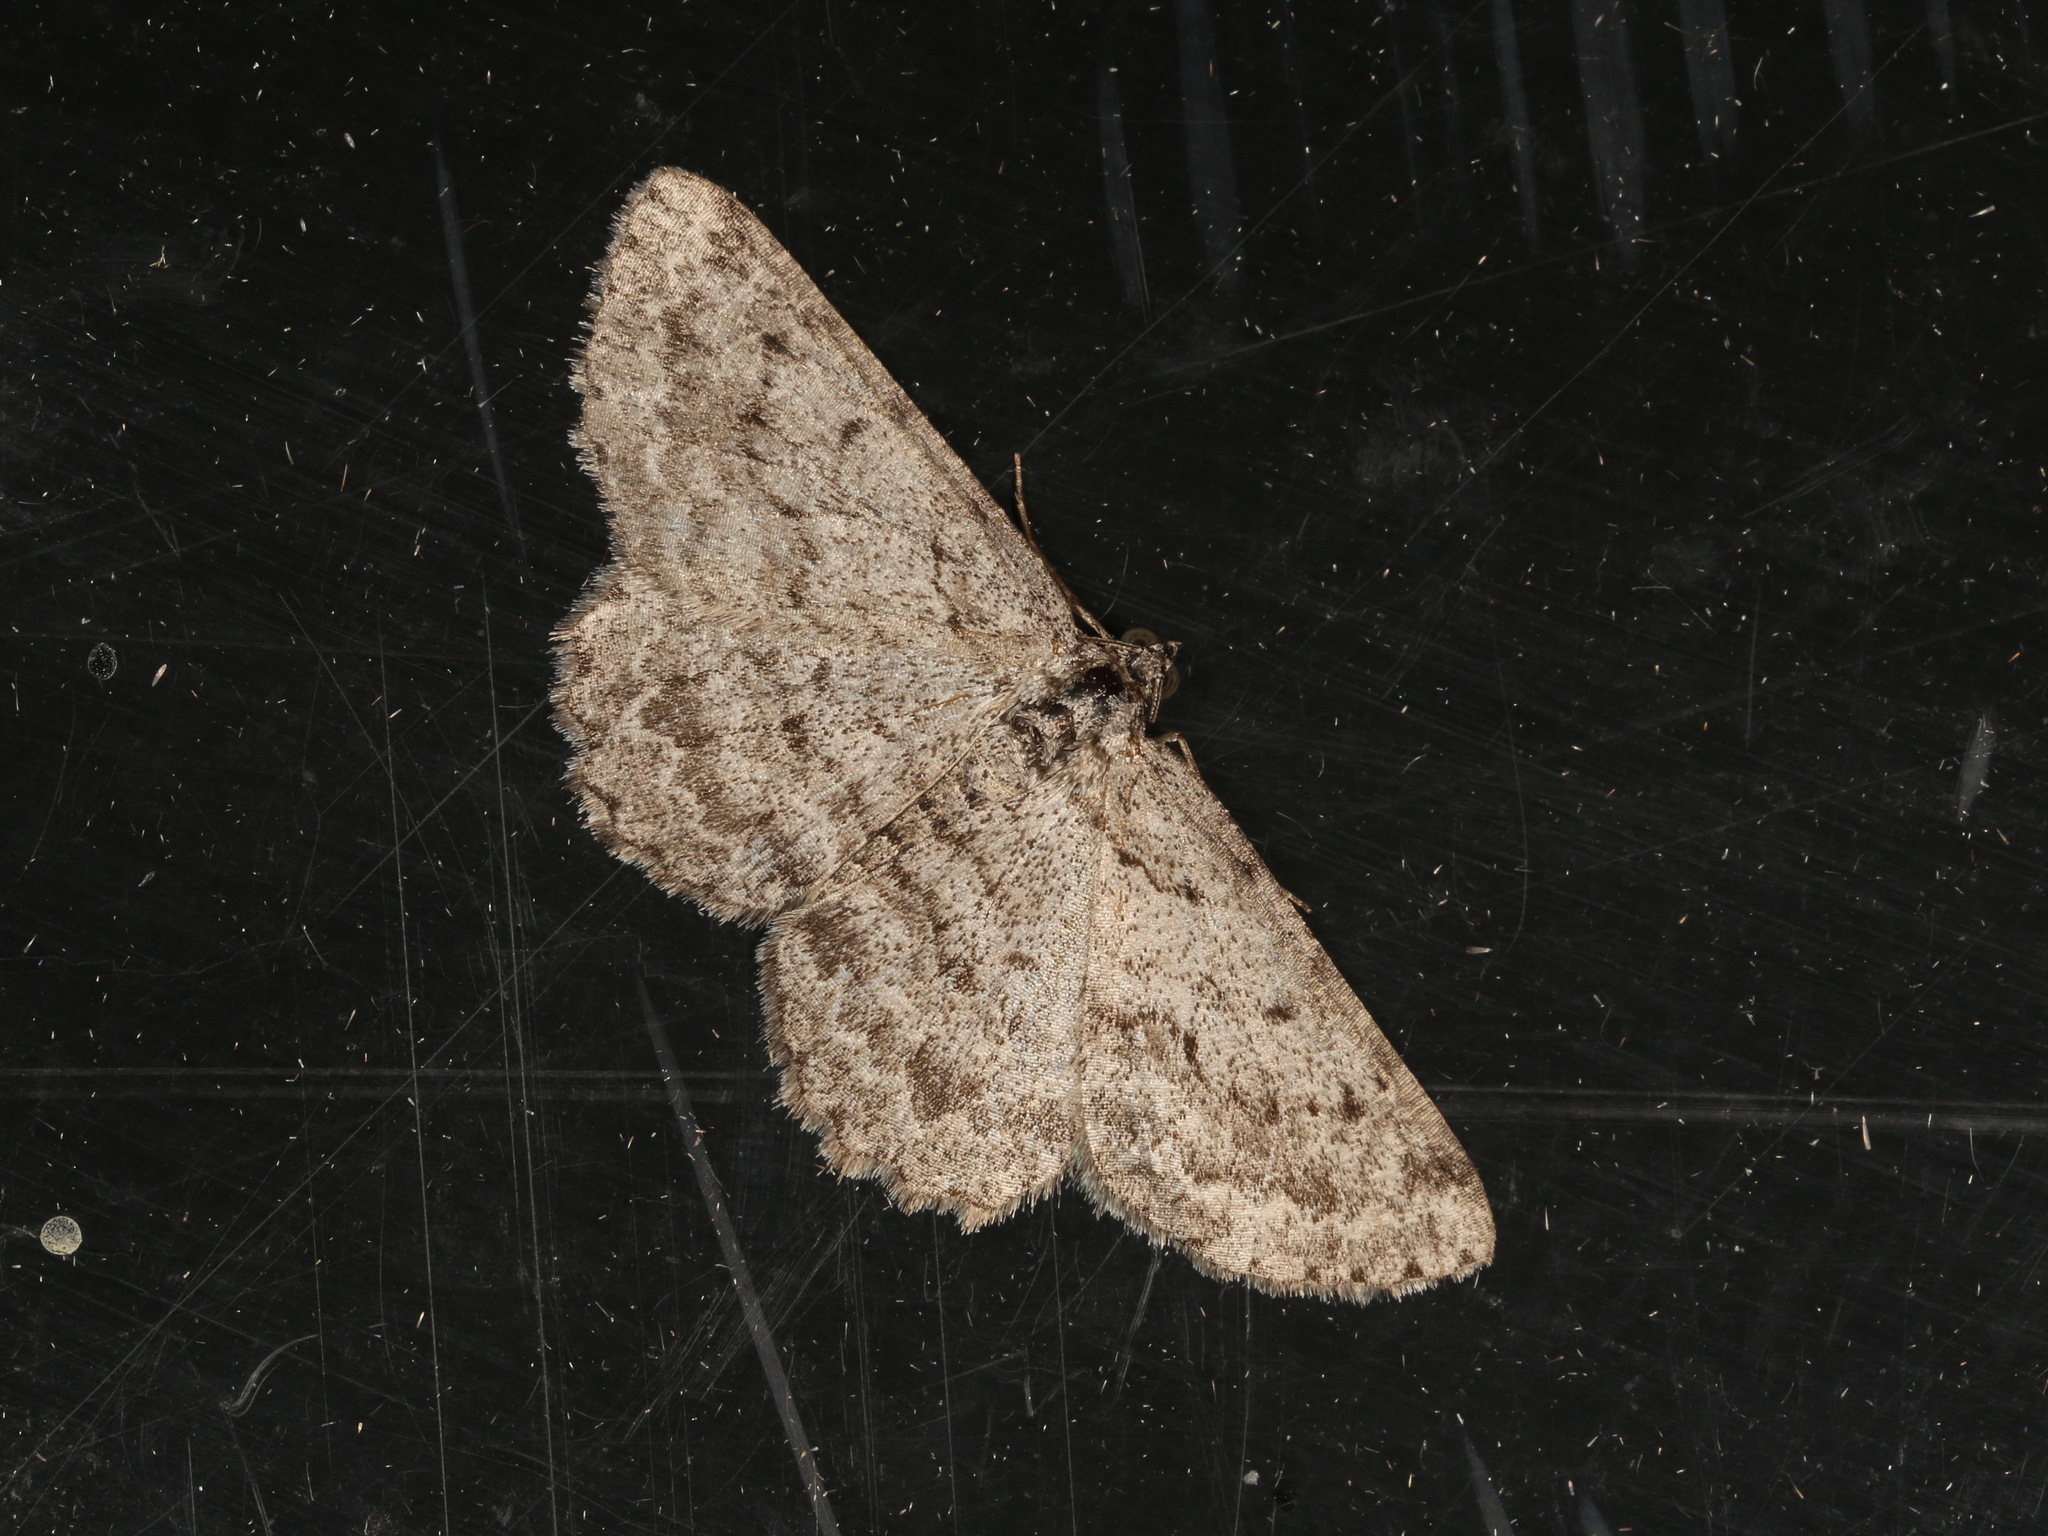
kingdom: Animalia
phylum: Arthropoda
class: Insecta
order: Lepidoptera
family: Geometridae
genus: Phelotis
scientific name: Phelotis cognata
